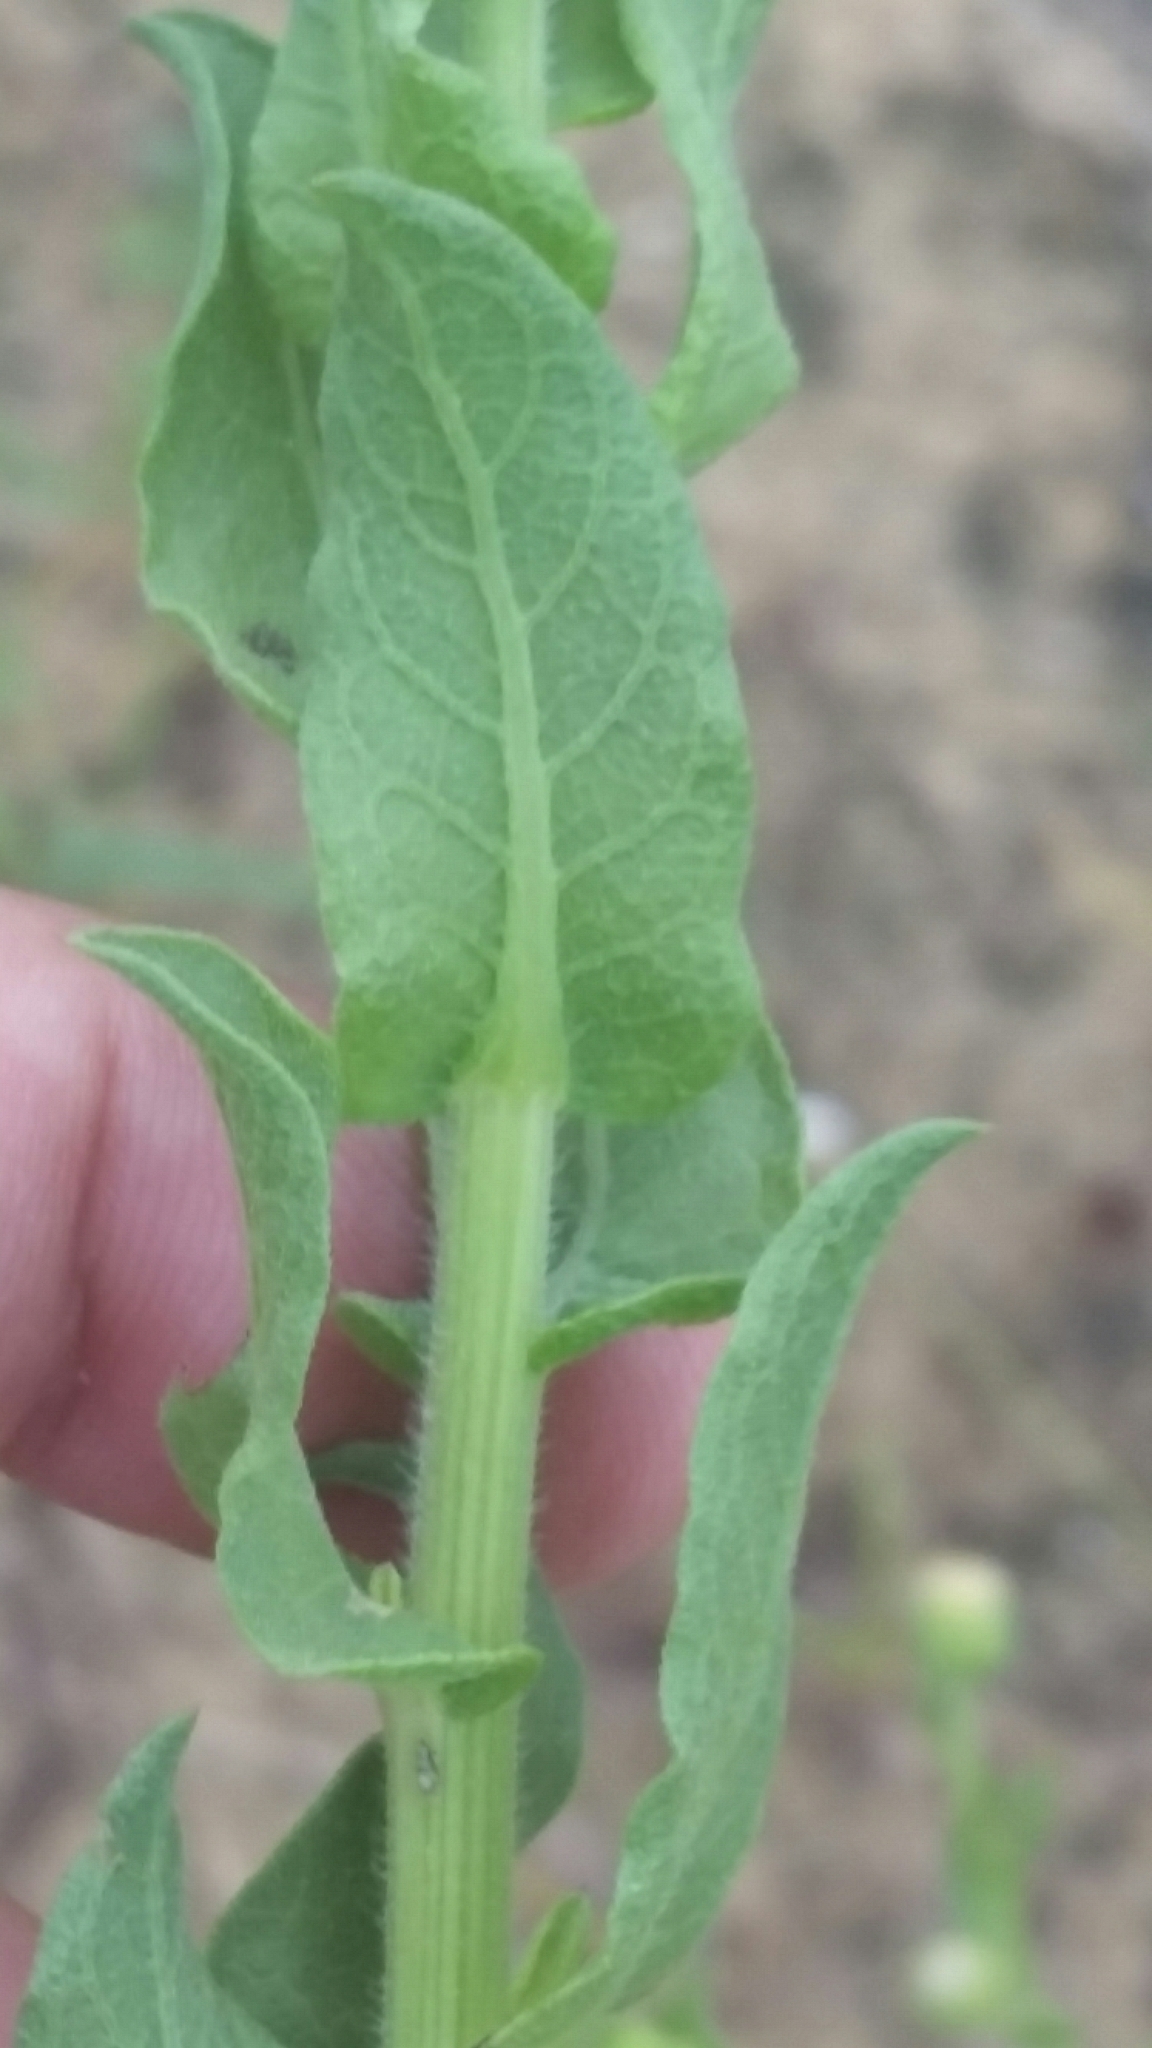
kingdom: Plantae
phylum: Tracheophyta
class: Magnoliopsida
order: Asterales
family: Asteraceae
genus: Heterotheca
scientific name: Heterotheca subaxillaris
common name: Camphorweed
